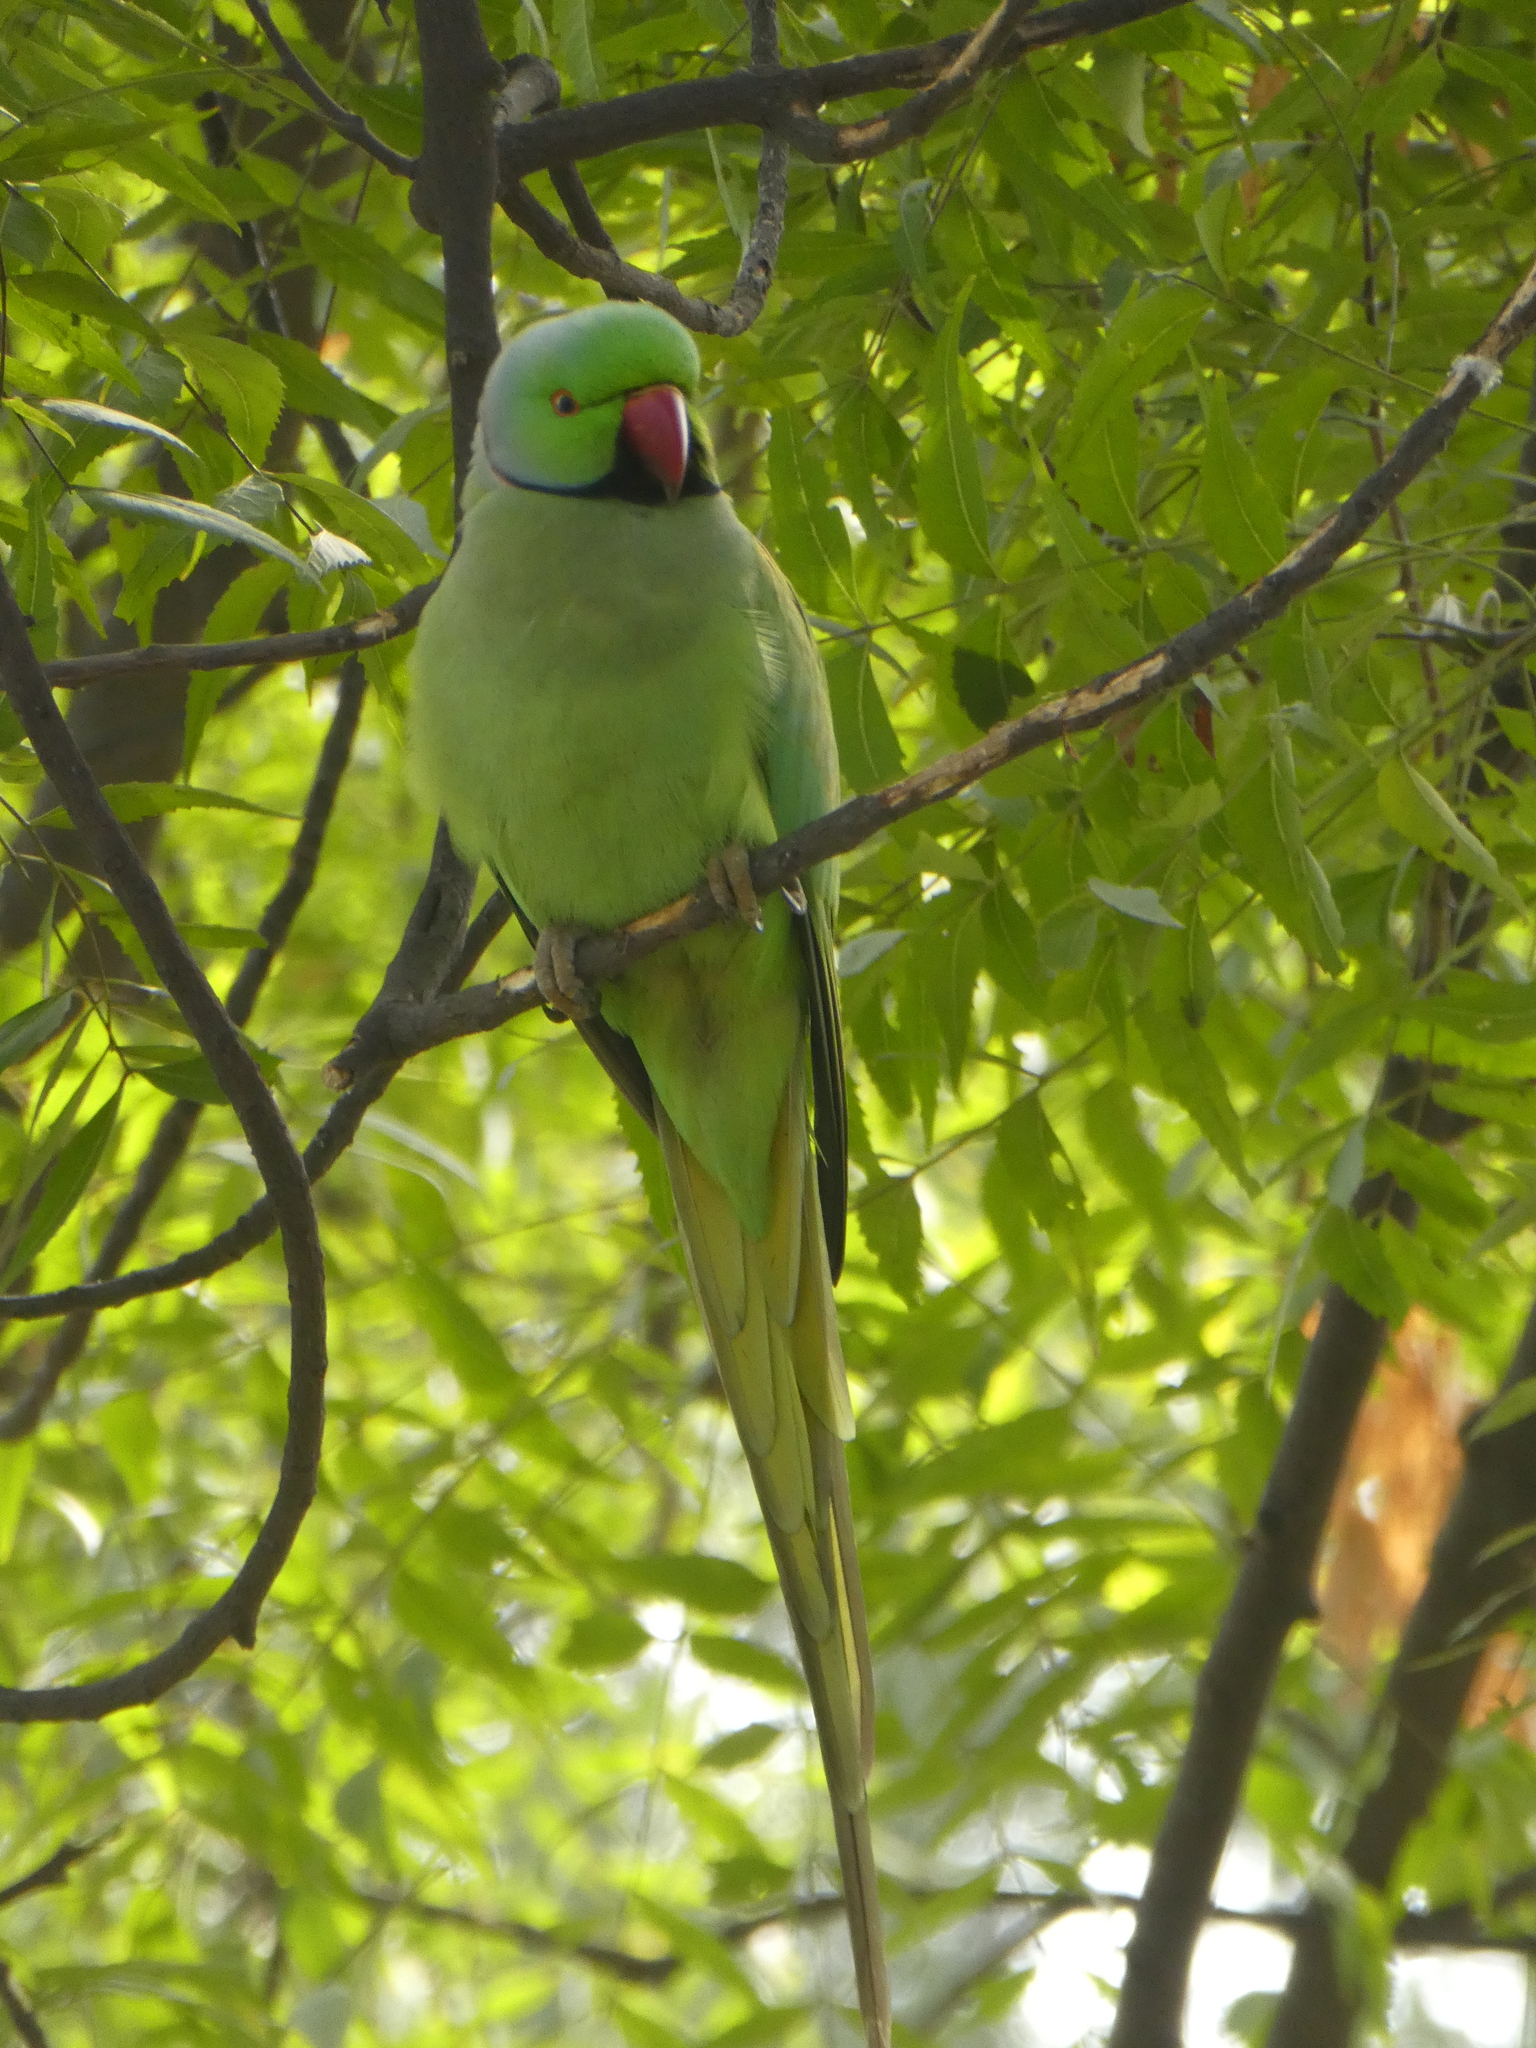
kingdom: Animalia
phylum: Chordata
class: Aves
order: Psittaciformes
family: Psittacidae
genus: Psittacula
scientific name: Psittacula krameri
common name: Rose-ringed parakeet
